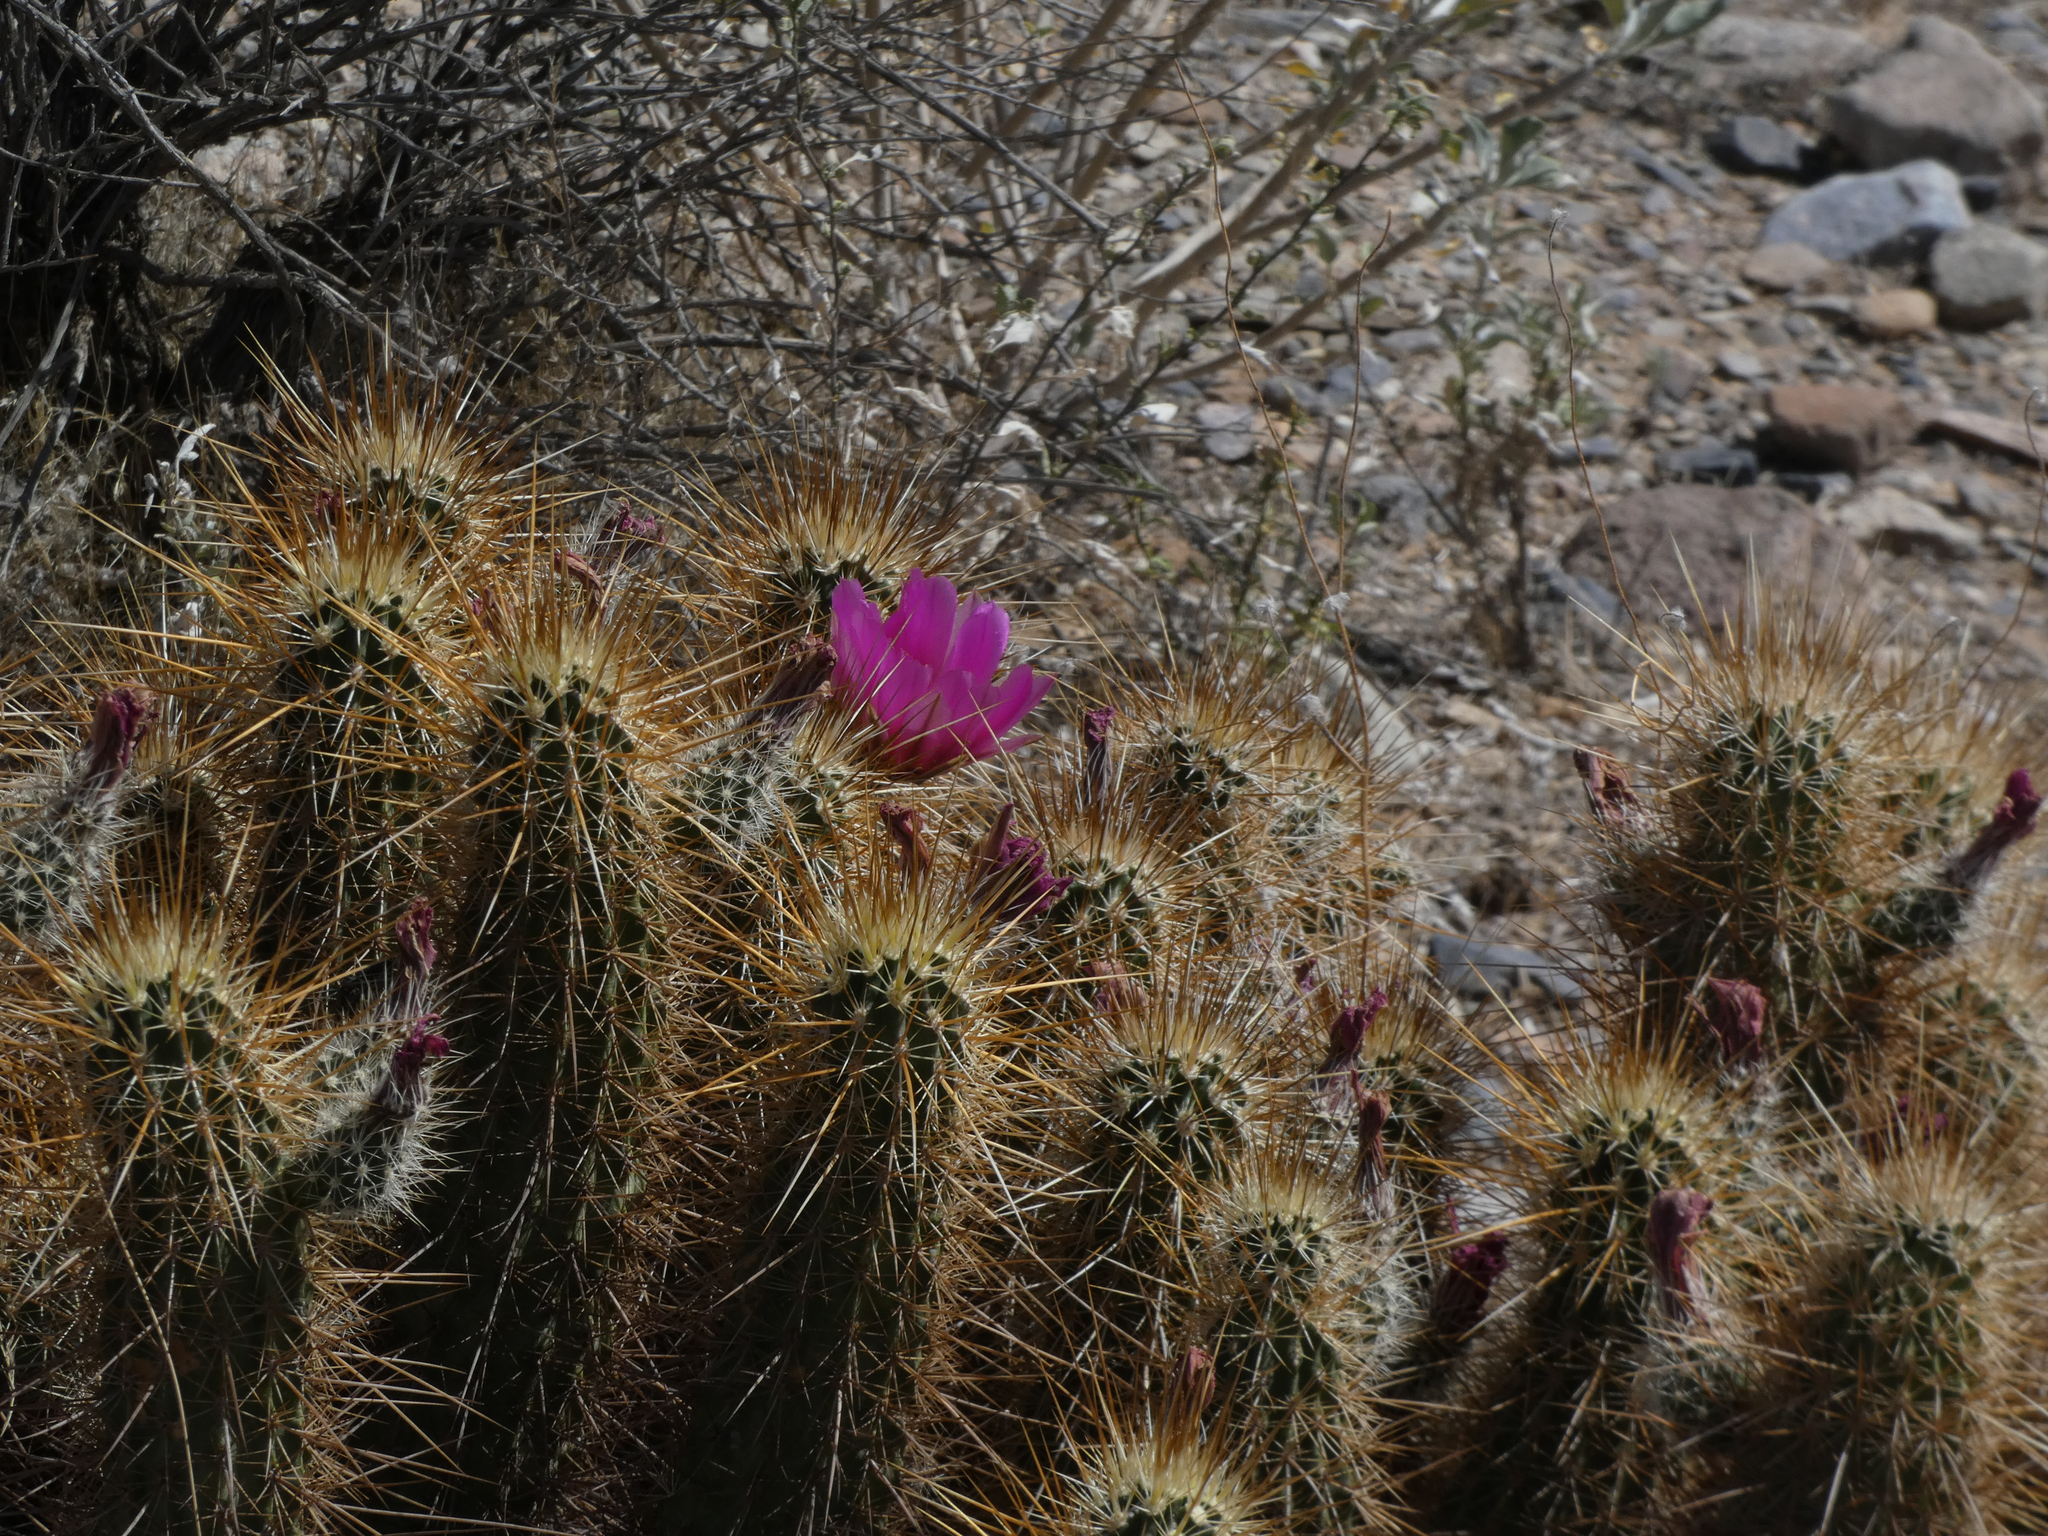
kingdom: Plantae
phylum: Tracheophyta
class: Magnoliopsida
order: Caryophyllales
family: Cactaceae
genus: Echinocereus
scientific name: Echinocereus engelmannii
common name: Engelmann's hedgehog cactus
